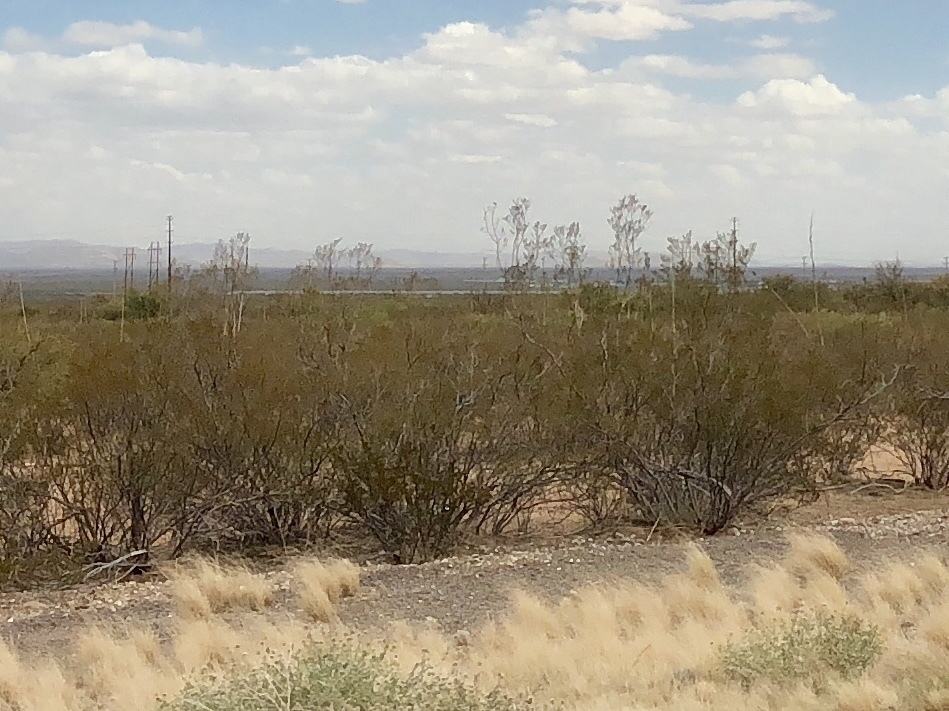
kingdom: Plantae
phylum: Tracheophyta
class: Magnoliopsida
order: Zygophyllales
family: Zygophyllaceae
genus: Larrea
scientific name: Larrea tridentata
